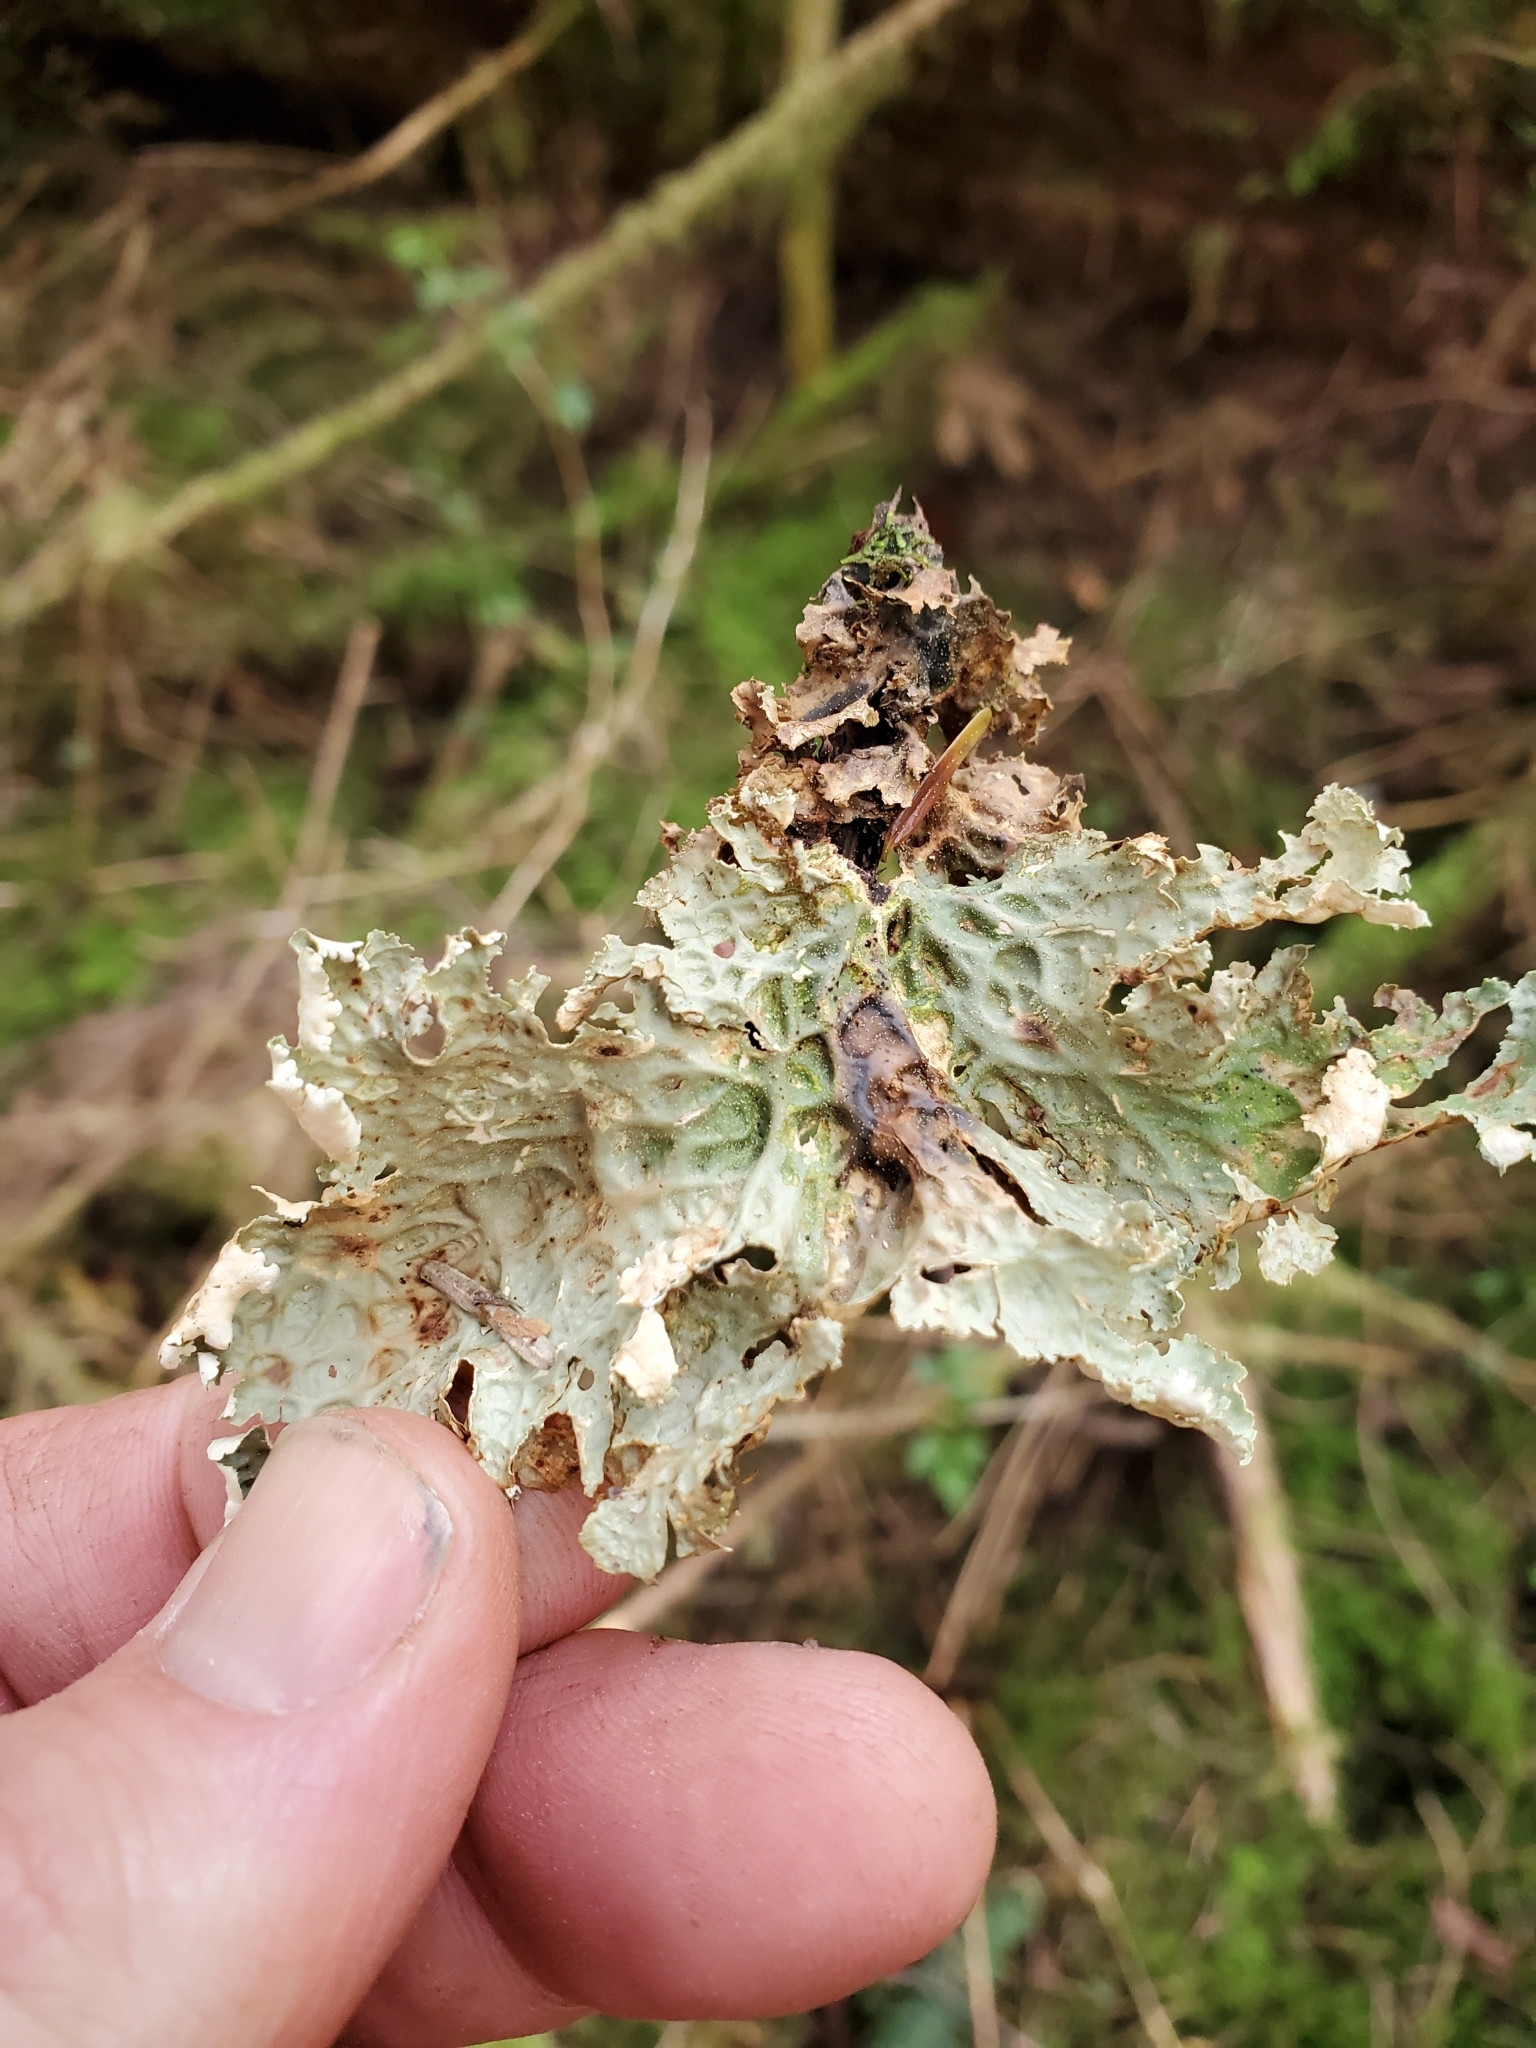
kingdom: Fungi
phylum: Ascomycota
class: Lecanoromycetes
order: Peltigerales
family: Lobariaceae
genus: Lobaria
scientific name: Lobaria oregana
